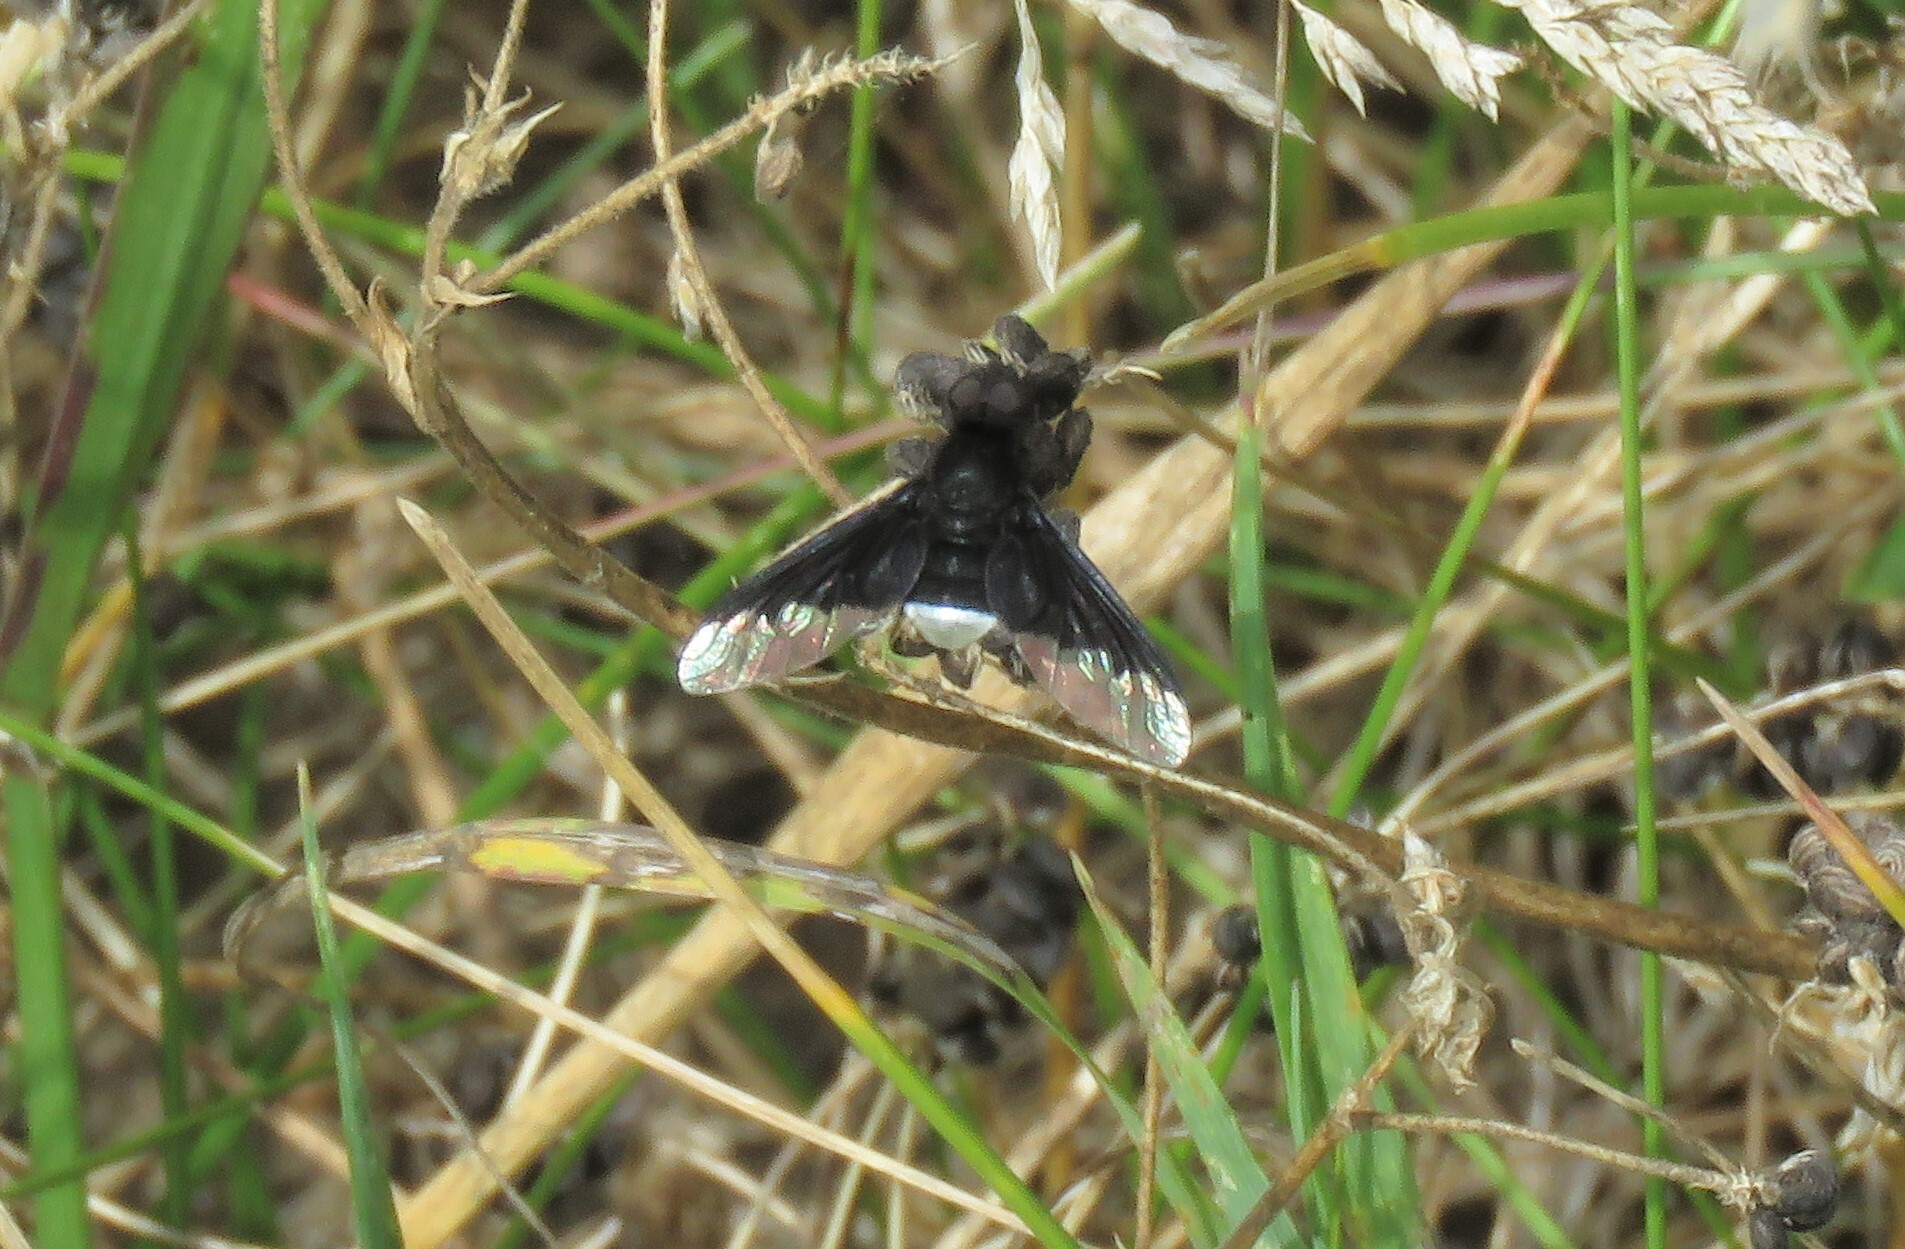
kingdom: Animalia
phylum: Arthropoda
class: Insecta
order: Diptera
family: Bombyliidae
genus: Anthrax
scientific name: Anthrax analis
